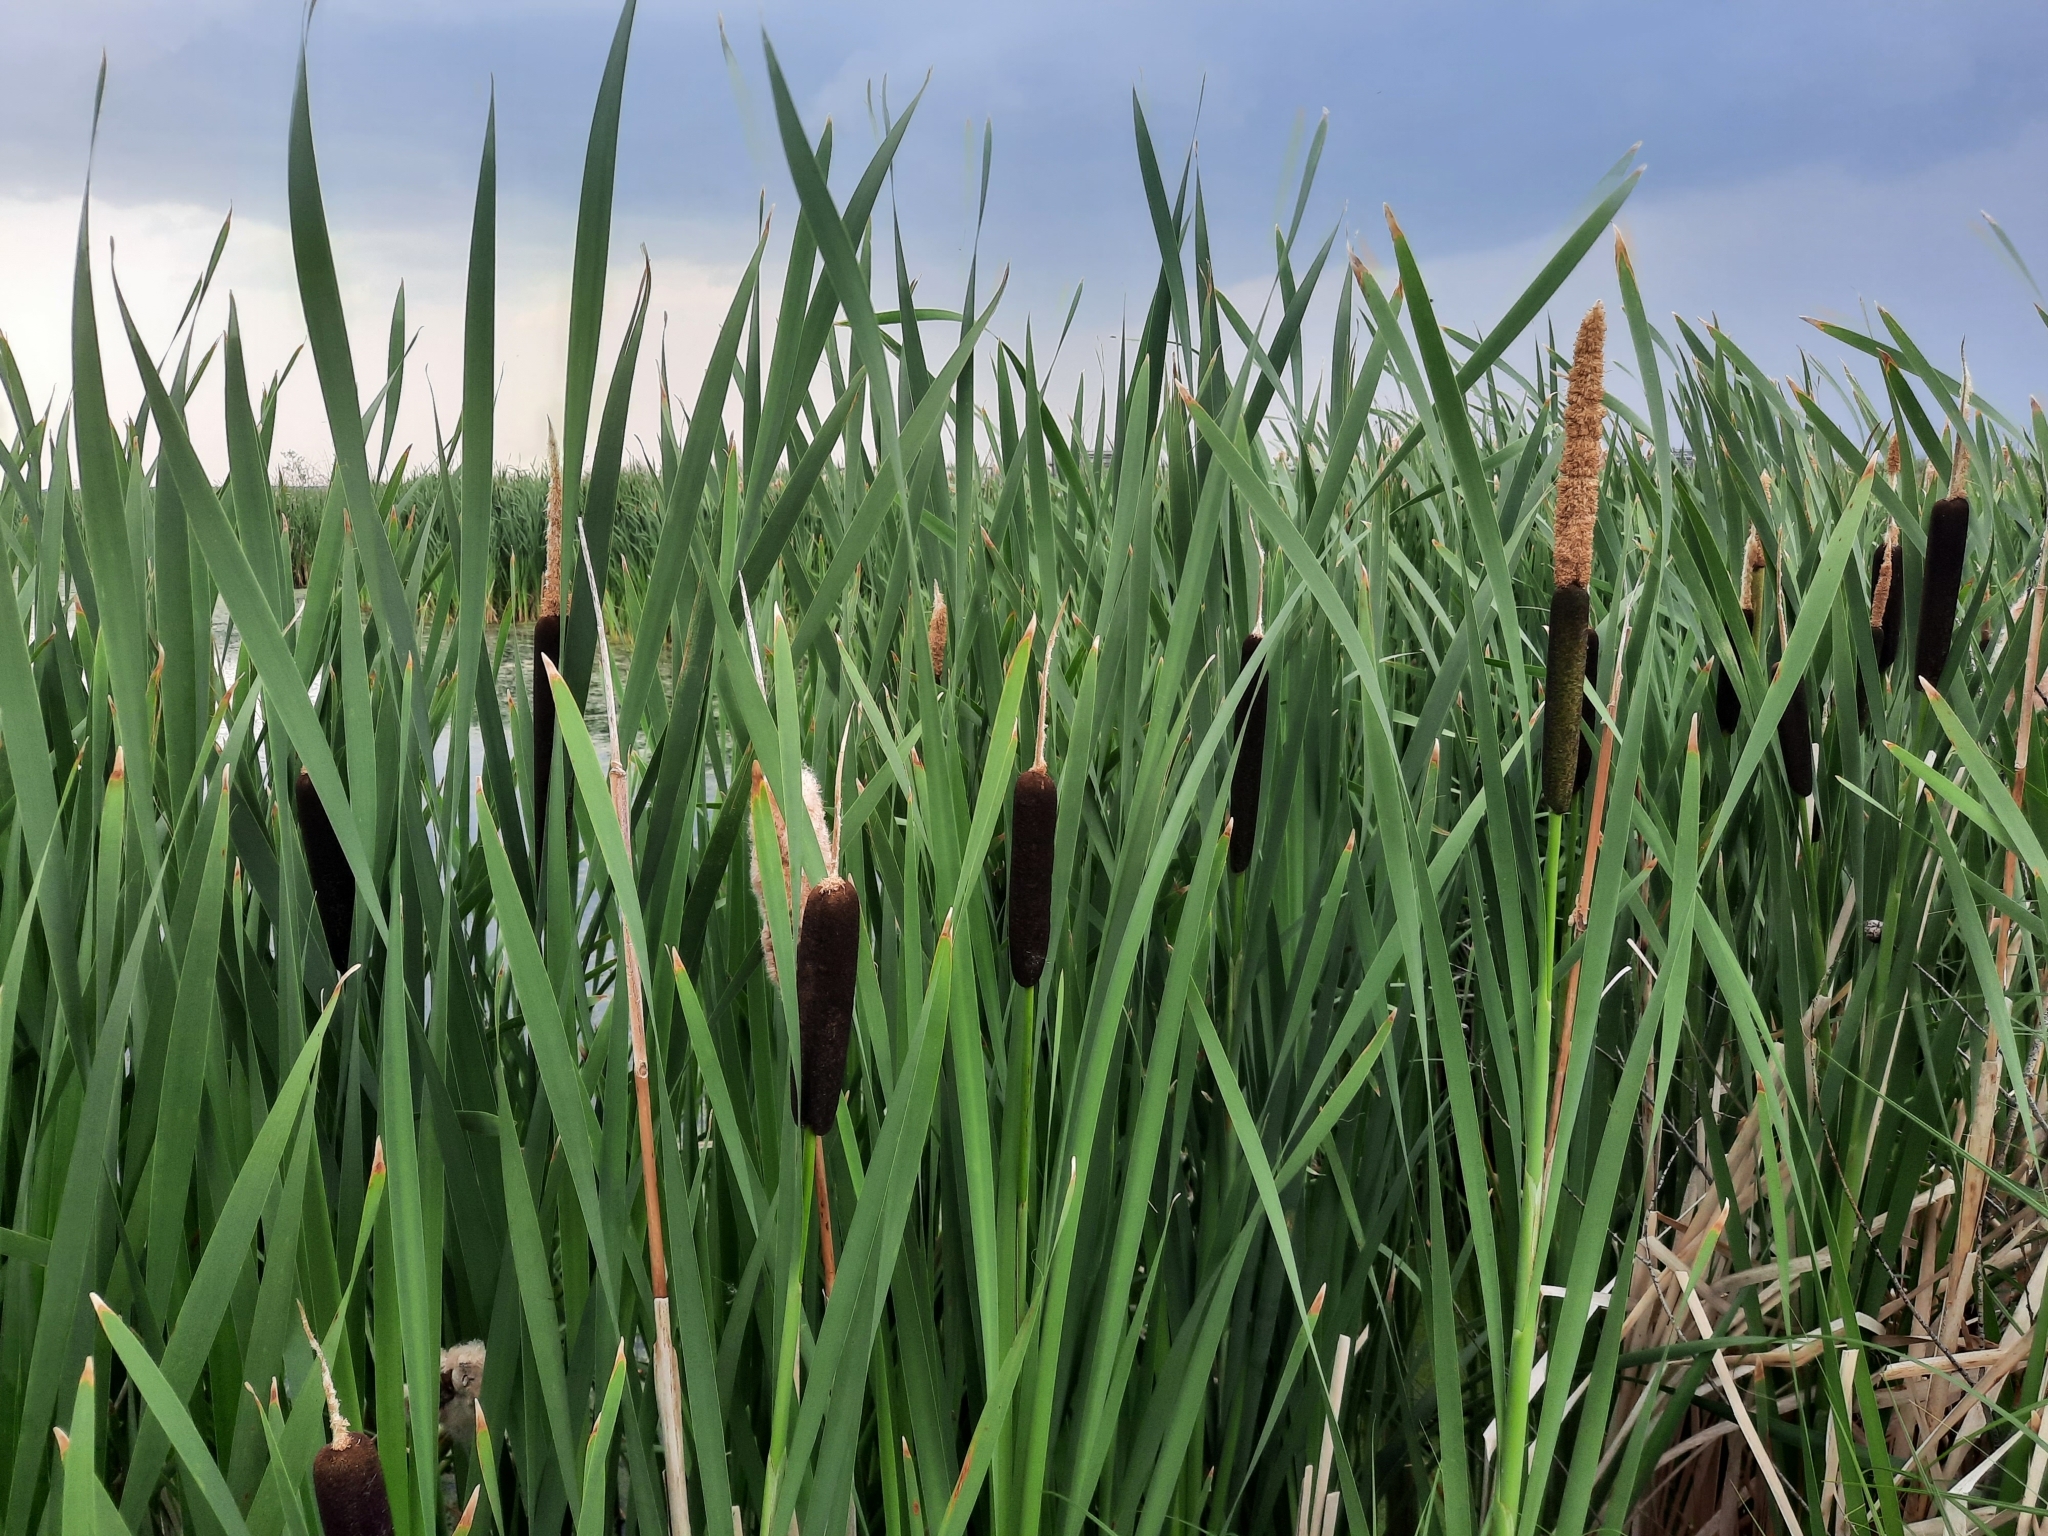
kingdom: Plantae
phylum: Tracheophyta
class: Liliopsida
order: Poales
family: Typhaceae
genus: Typha
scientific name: Typha latifolia
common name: Broadleaf cattail
